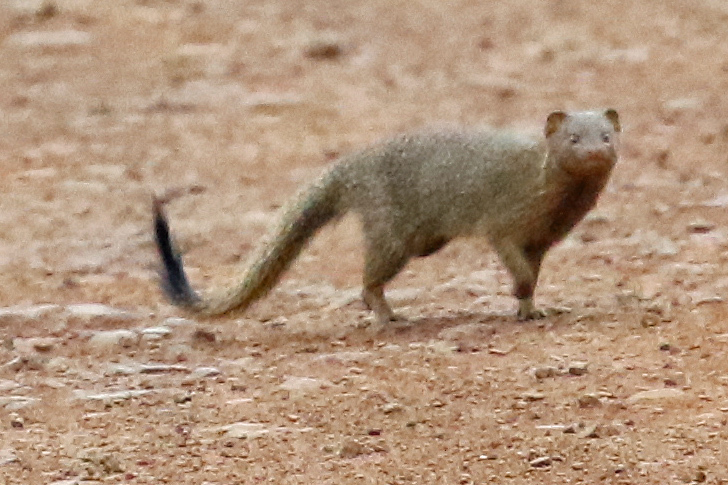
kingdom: Animalia
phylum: Chordata
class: Mammalia
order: Carnivora
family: Herpestidae
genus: Galerella
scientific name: Galerella sanguinea
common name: Slender mongoose
